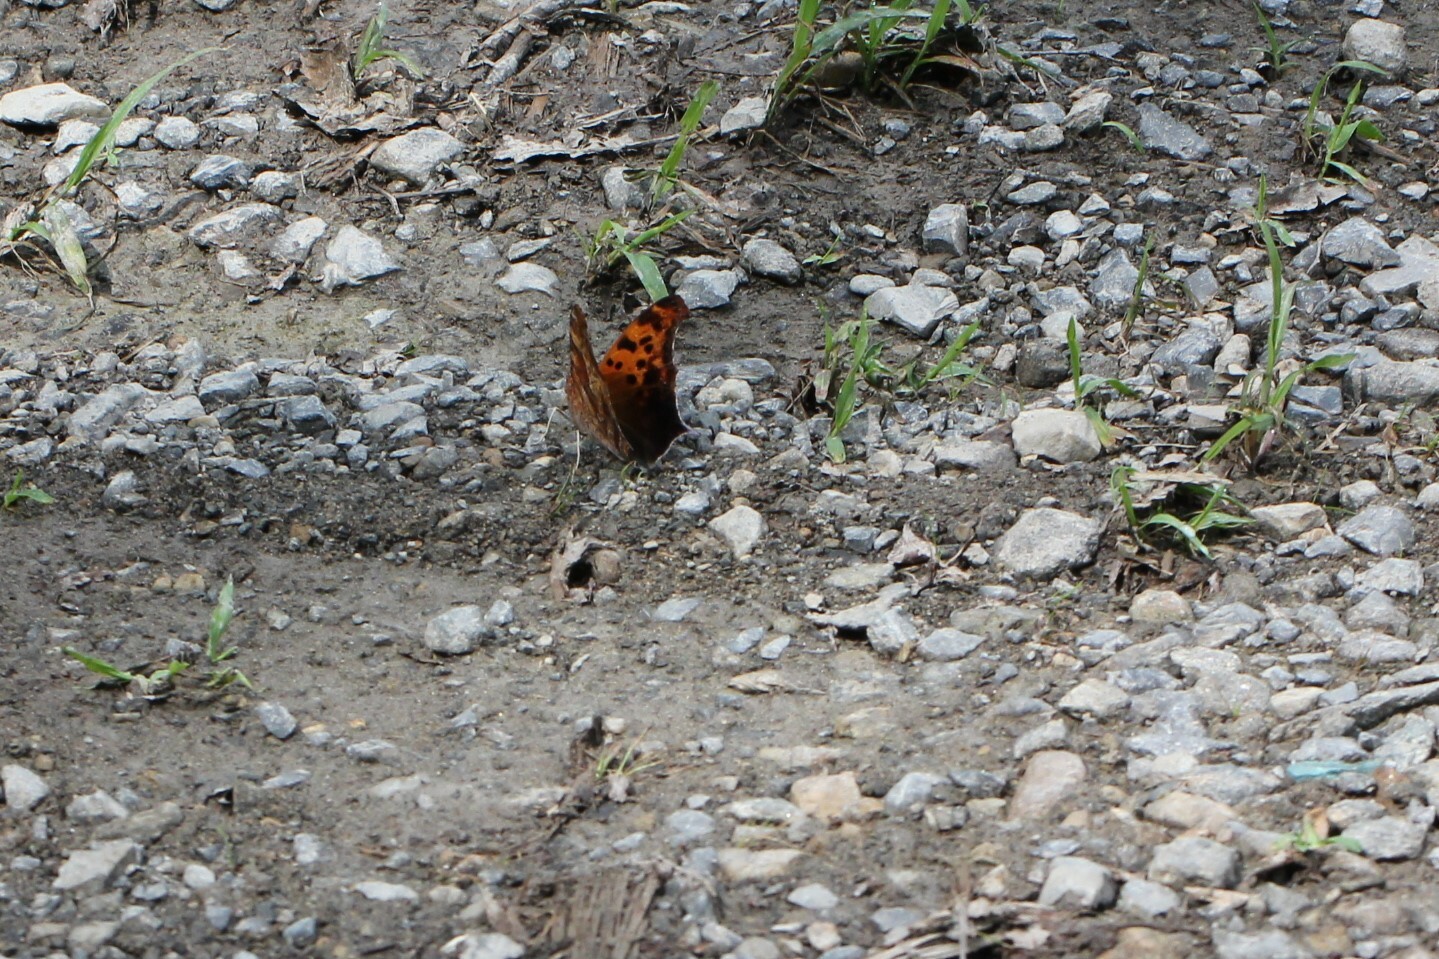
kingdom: Animalia
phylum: Arthropoda
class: Insecta
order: Lepidoptera
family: Nymphalidae
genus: Polygonia
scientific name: Polygonia interrogationis
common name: Question mark
